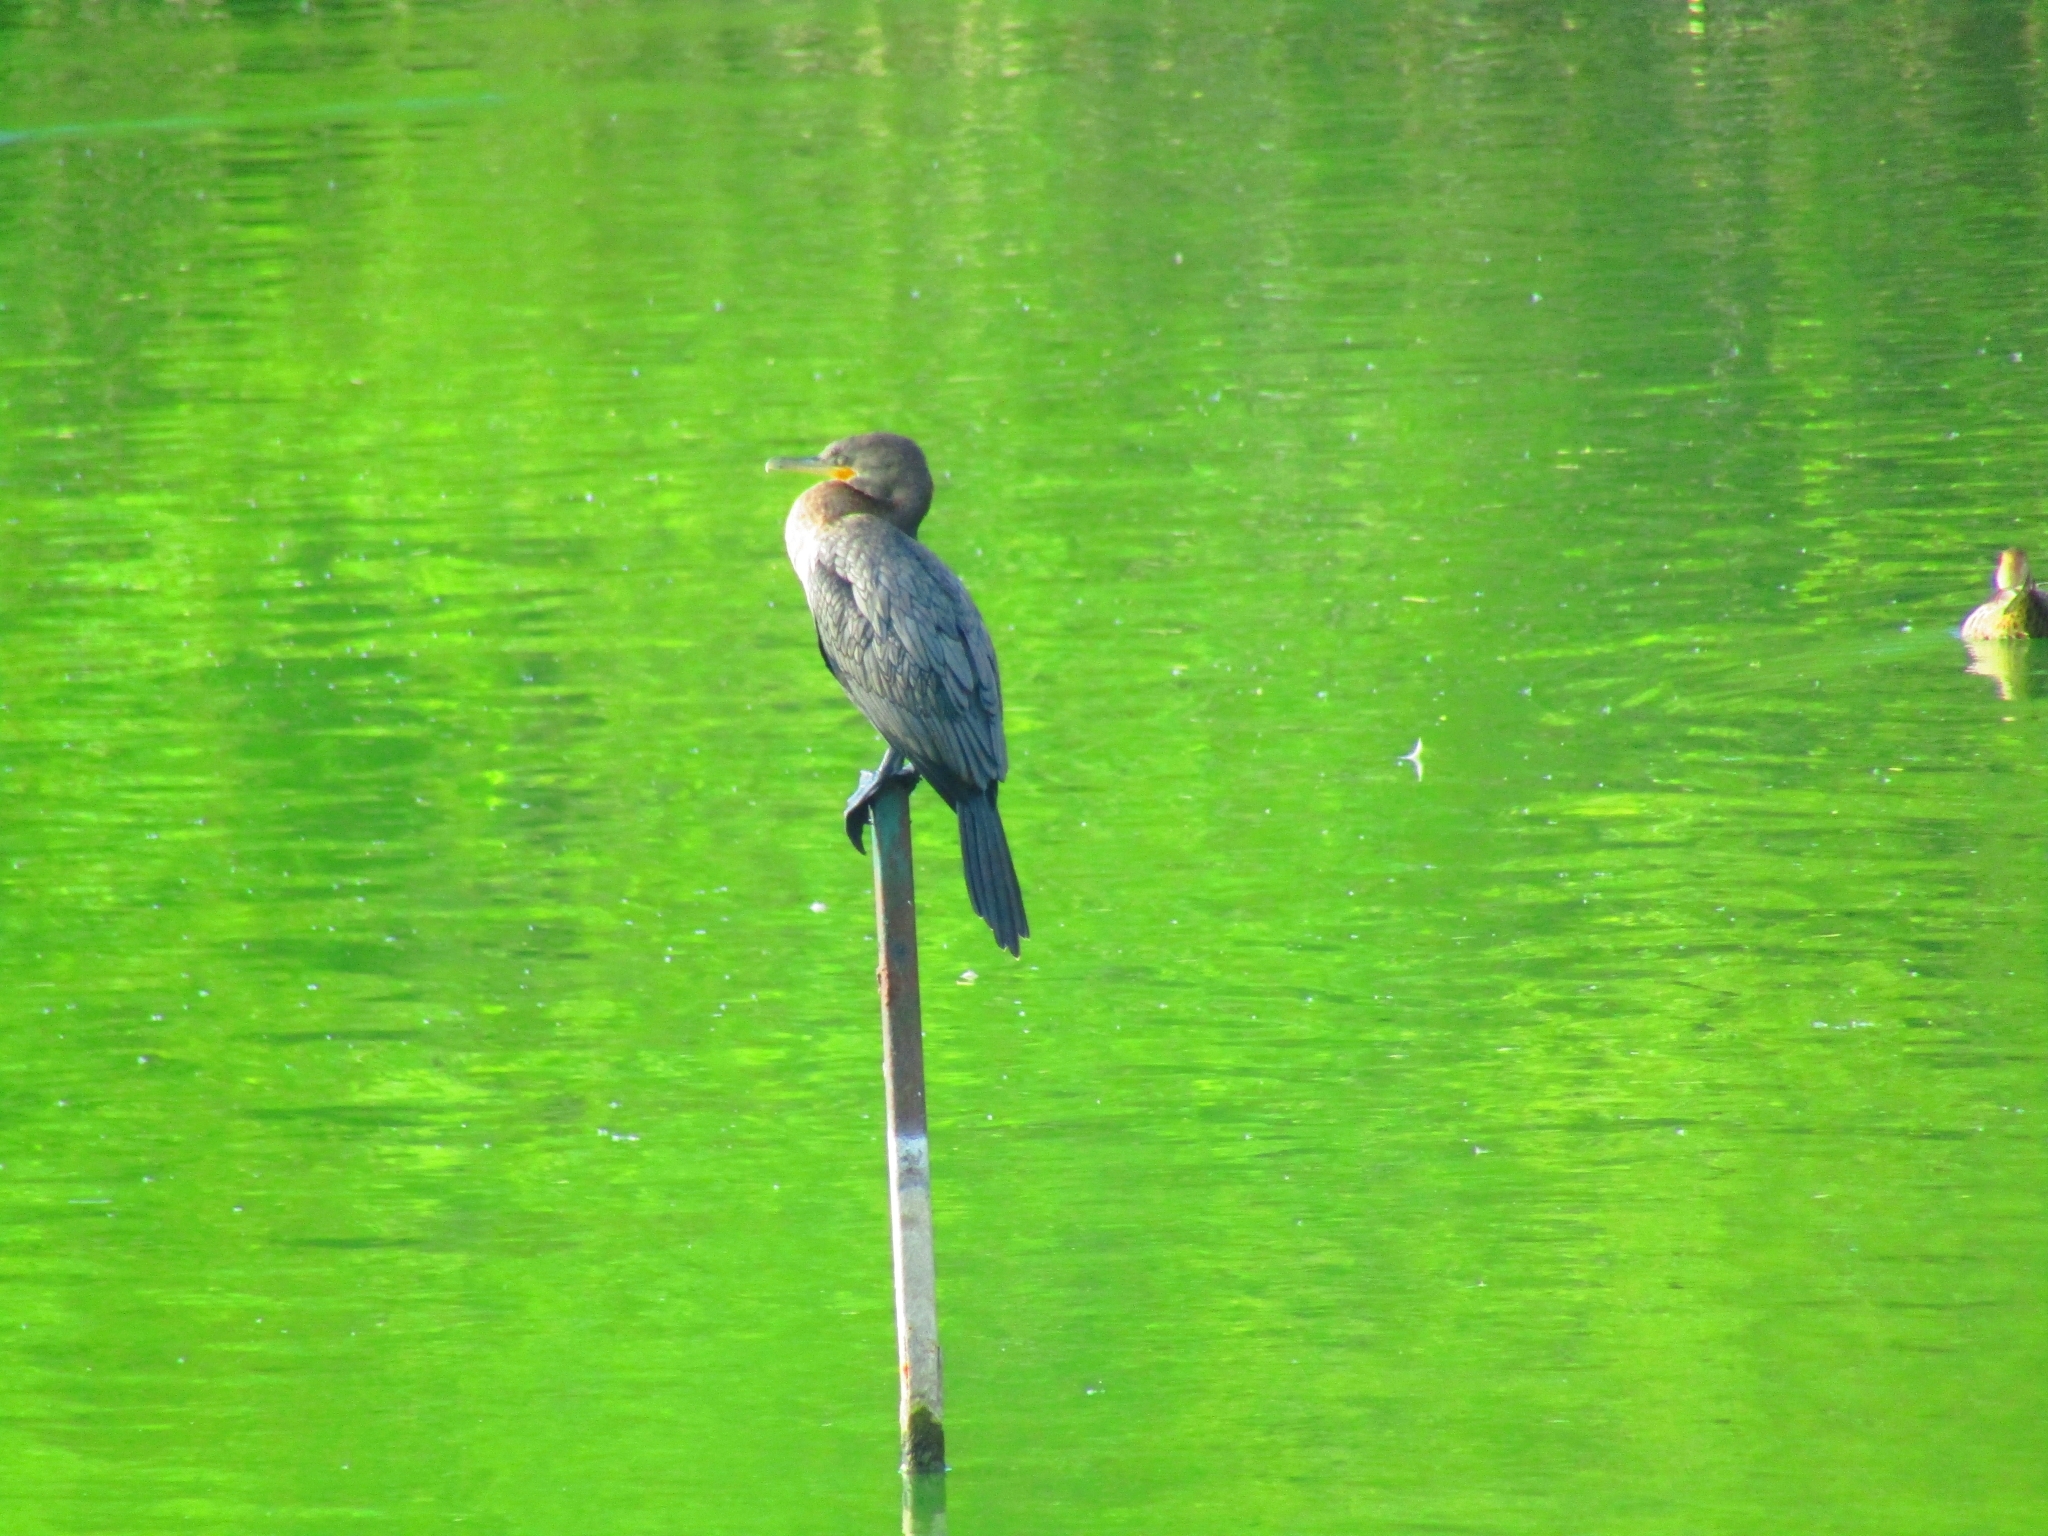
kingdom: Animalia
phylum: Chordata
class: Aves
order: Suliformes
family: Phalacrocoracidae
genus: Phalacrocorax
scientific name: Phalacrocorax brasilianus
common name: Neotropic cormorant
